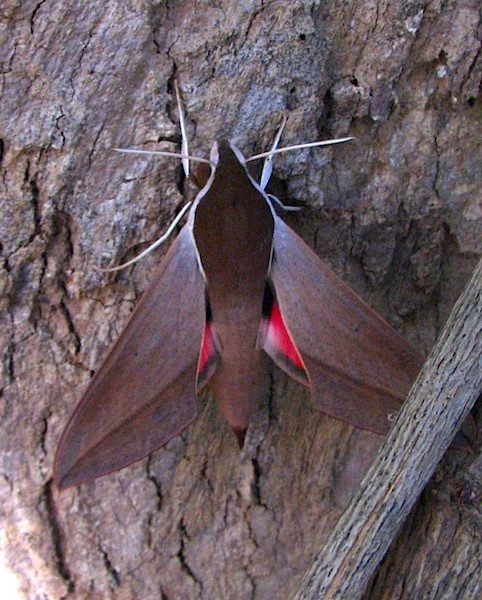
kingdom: Animalia
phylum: Arthropoda
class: Insecta
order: Lepidoptera
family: Sphingidae
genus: Theretra
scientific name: Theretra alecto
